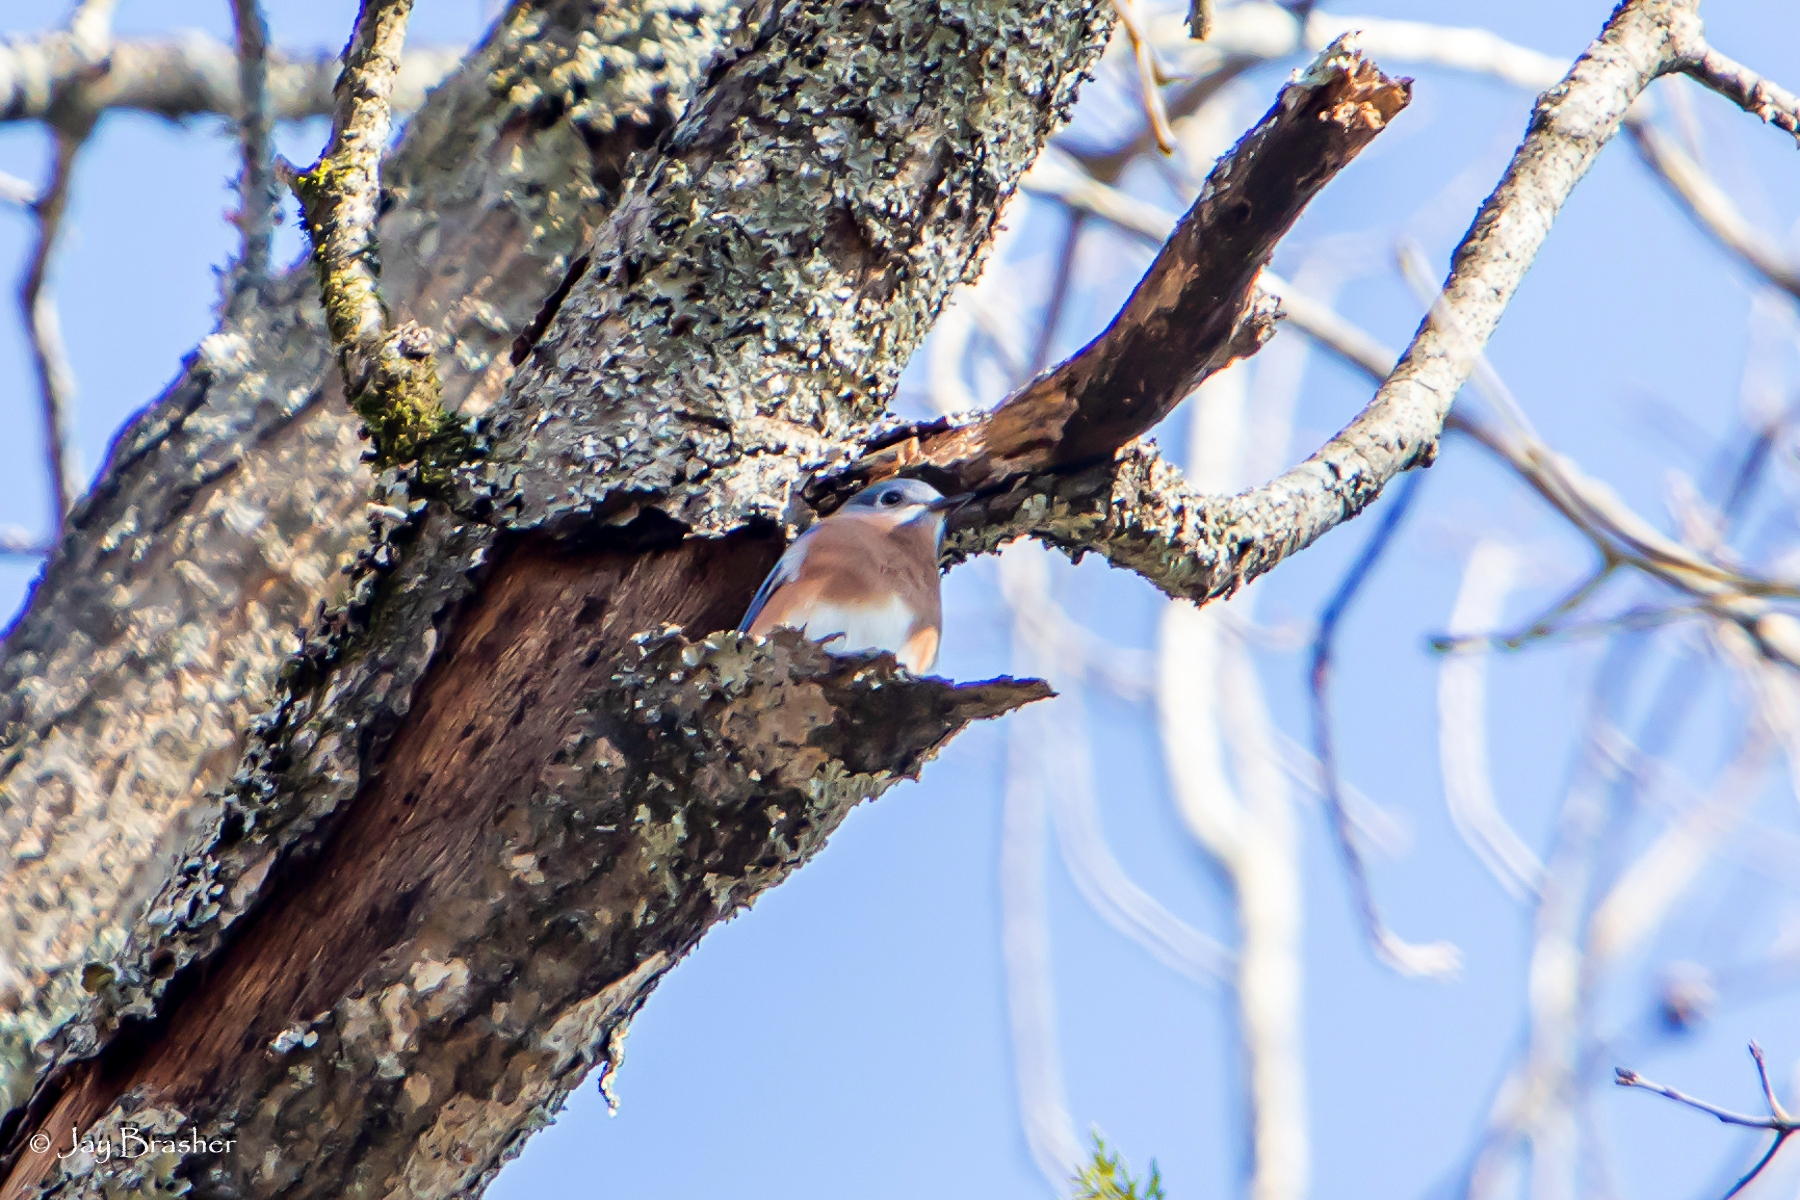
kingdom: Animalia
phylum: Chordata
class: Aves
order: Passeriformes
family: Turdidae
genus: Sialia
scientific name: Sialia sialis
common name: Eastern bluebird
